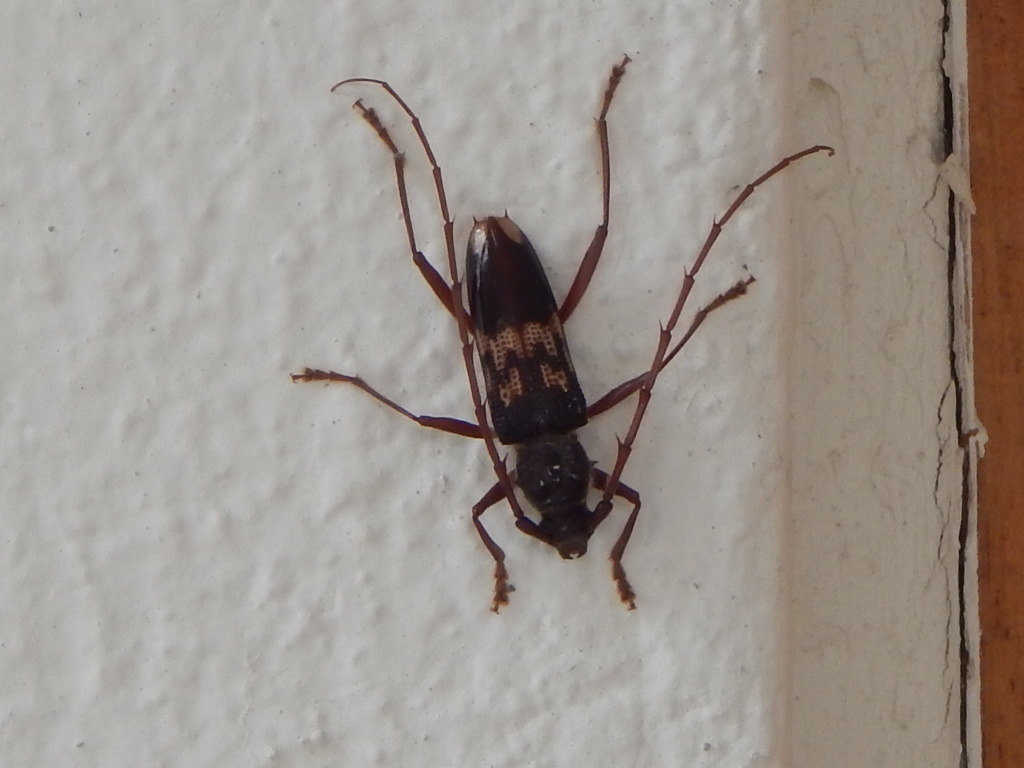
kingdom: Animalia
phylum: Arthropoda
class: Insecta
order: Coleoptera
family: Cerambycidae
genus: Phoracantha
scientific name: Phoracantha semipunctata
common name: Eucalyptus longhorn borer
